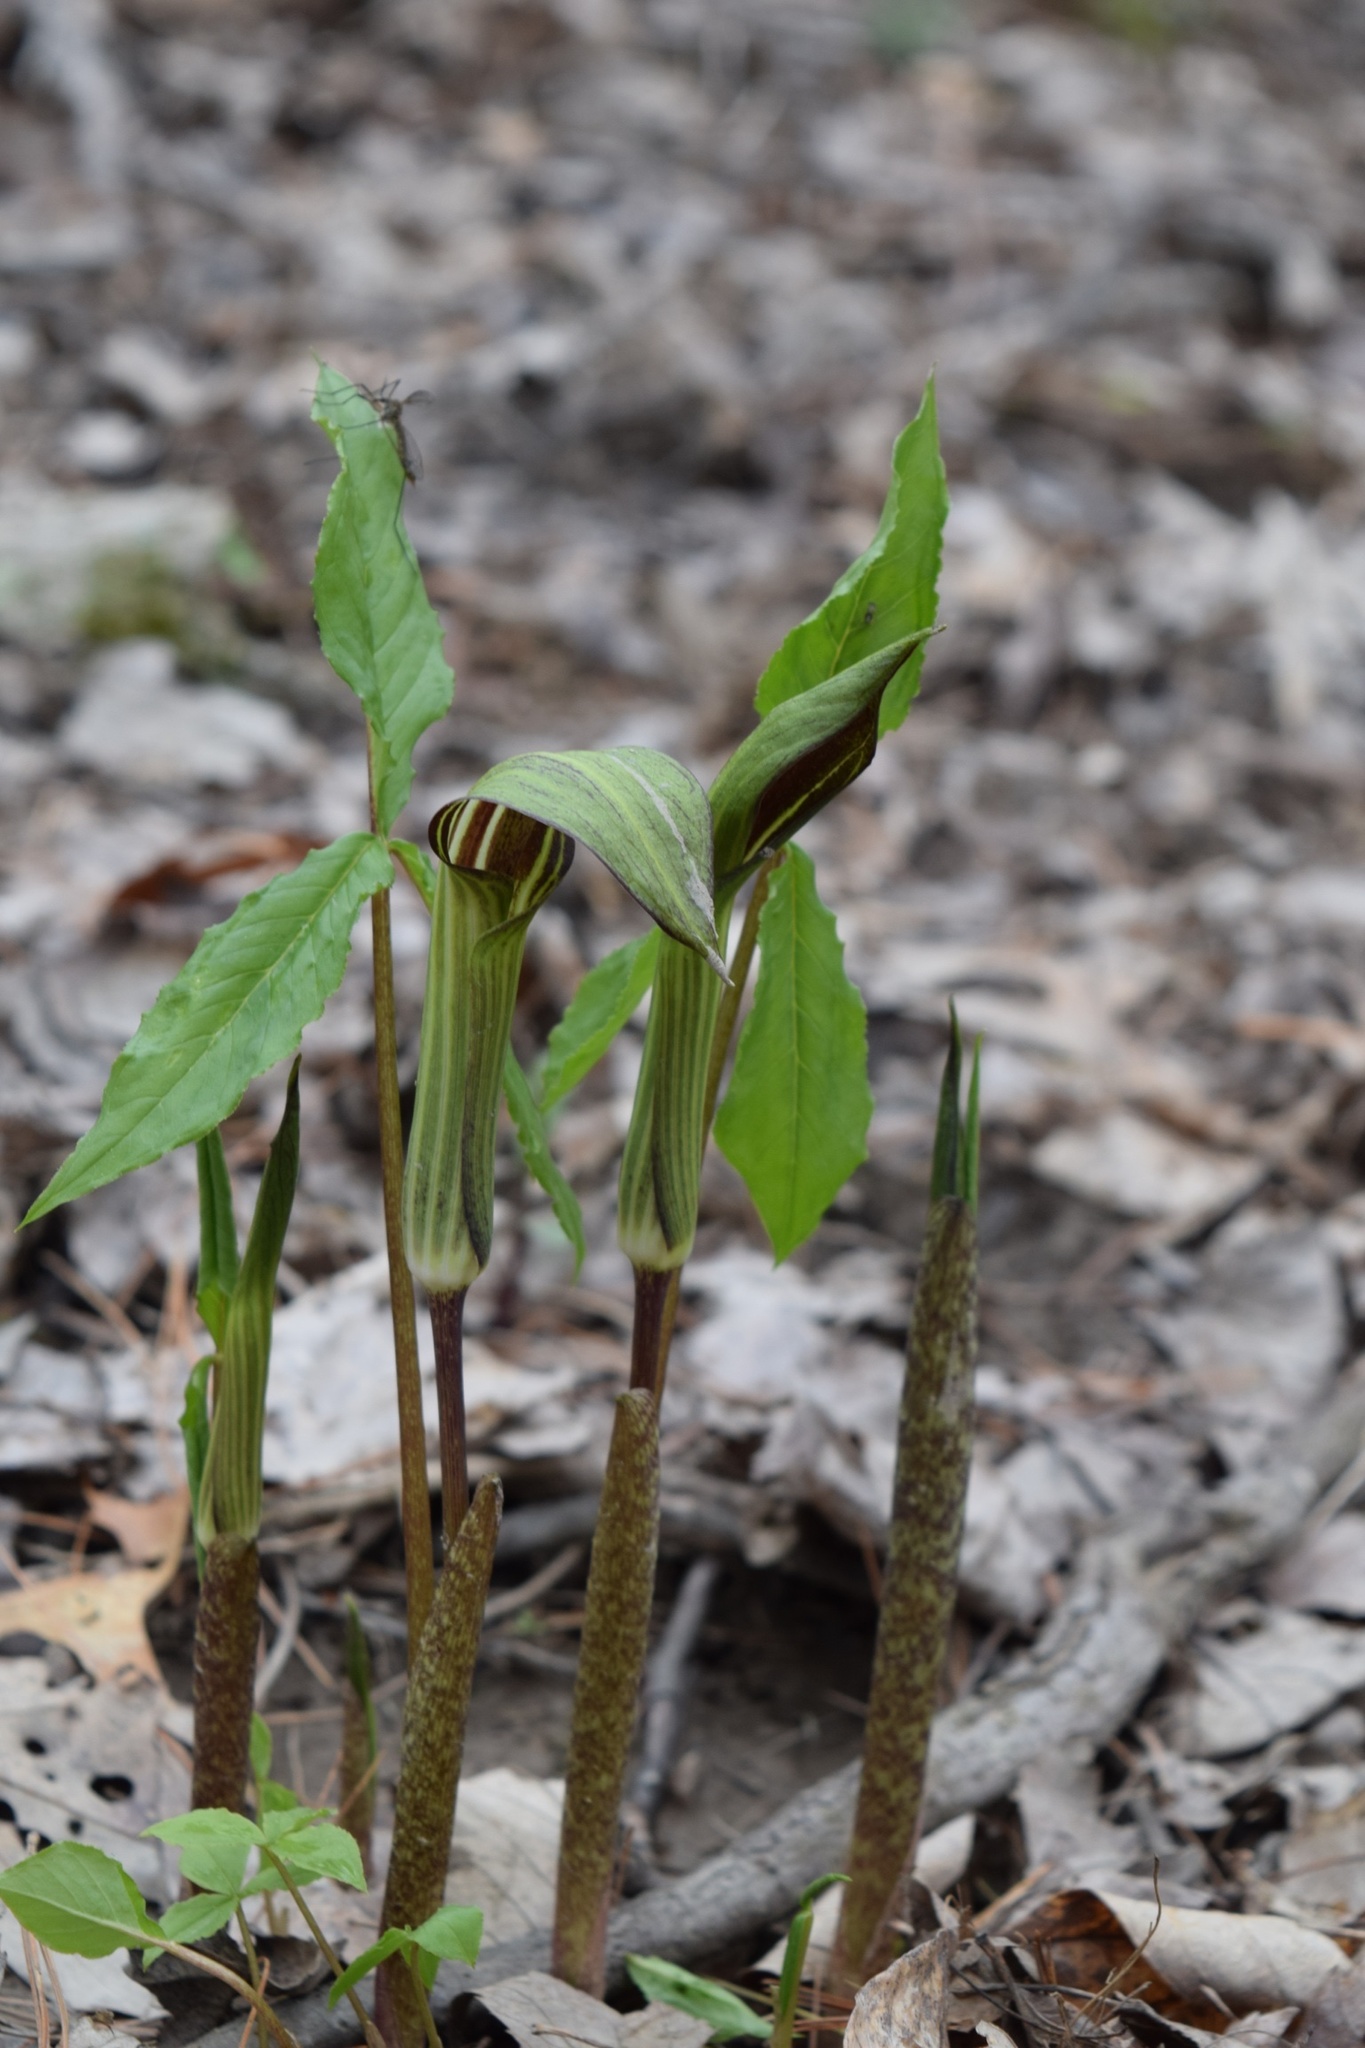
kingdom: Plantae
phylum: Tracheophyta
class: Liliopsida
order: Alismatales
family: Araceae
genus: Arisaema
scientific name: Arisaema triphyllum
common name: Jack-in-the-pulpit
